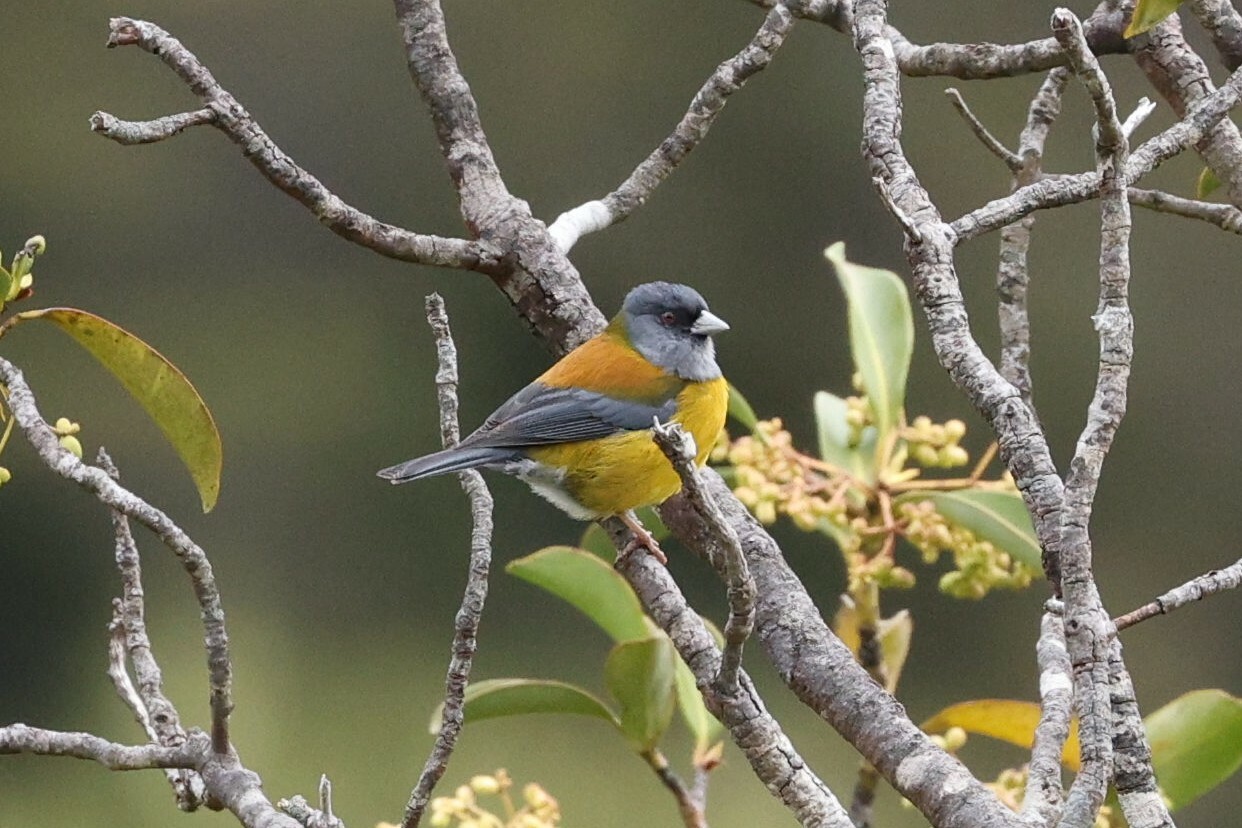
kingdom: Animalia
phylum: Chordata
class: Aves
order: Passeriformes
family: Thraupidae
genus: Phrygilus
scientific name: Phrygilus patagonicus
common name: Patagonian sierra finch
